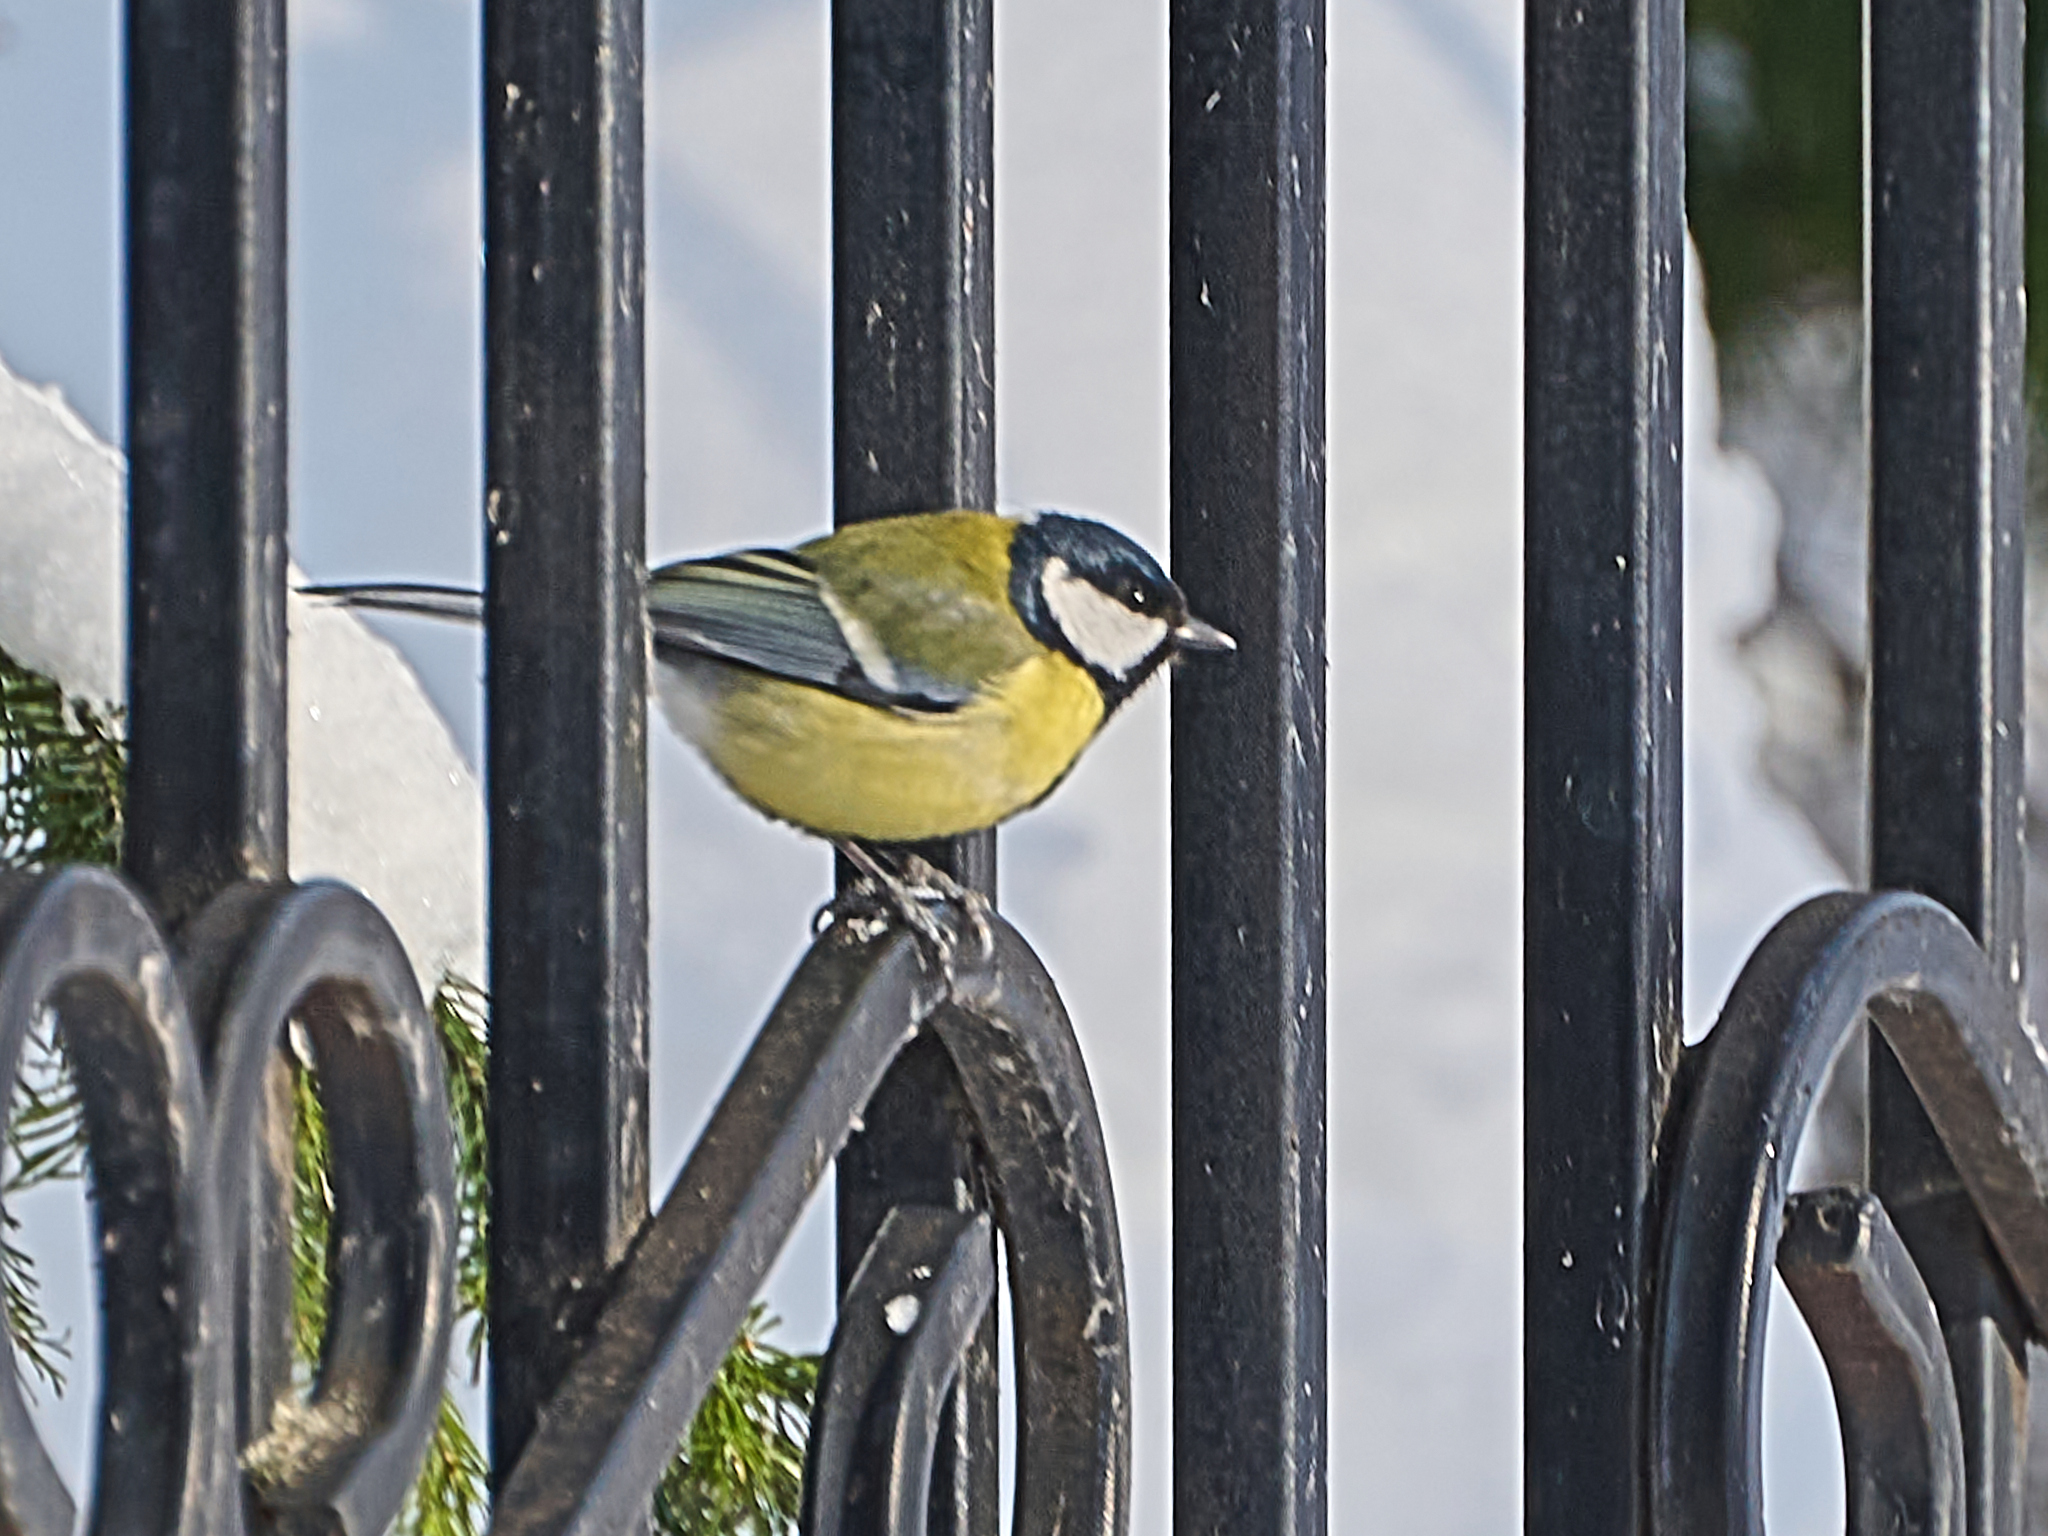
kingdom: Animalia
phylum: Chordata
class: Aves
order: Passeriformes
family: Paridae
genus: Parus
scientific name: Parus major
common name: Great tit
